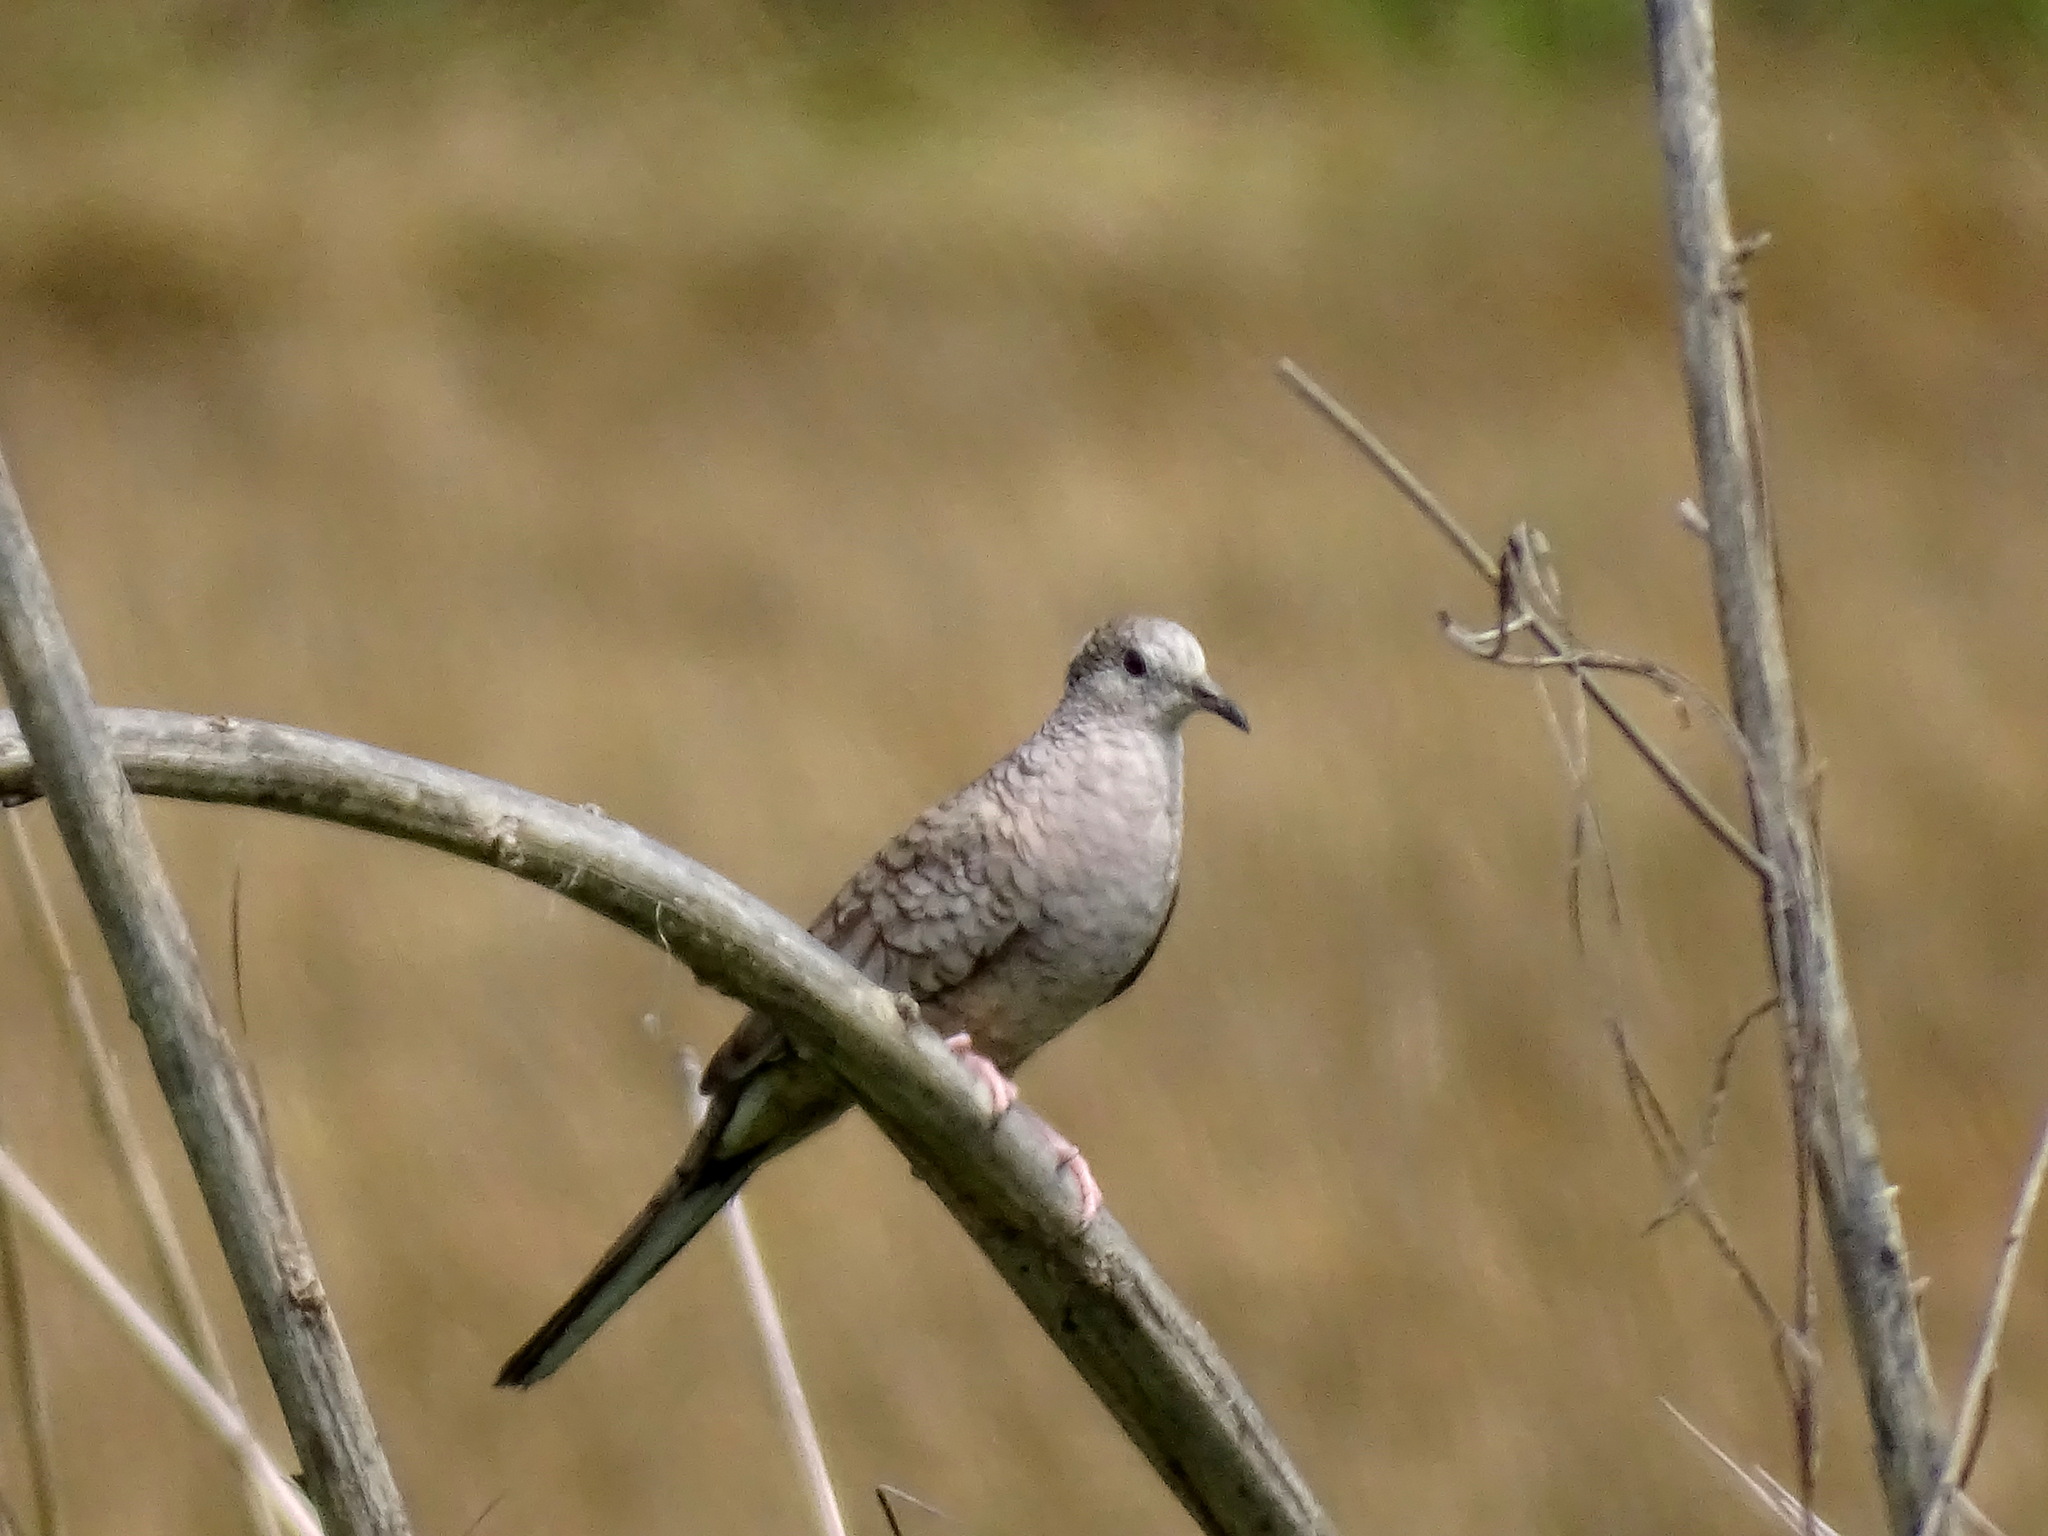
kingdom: Animalia
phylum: Chordata
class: Aves
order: Columbiformes
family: Columbidae
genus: Columbina
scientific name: Columbina inca
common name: Inca dove
